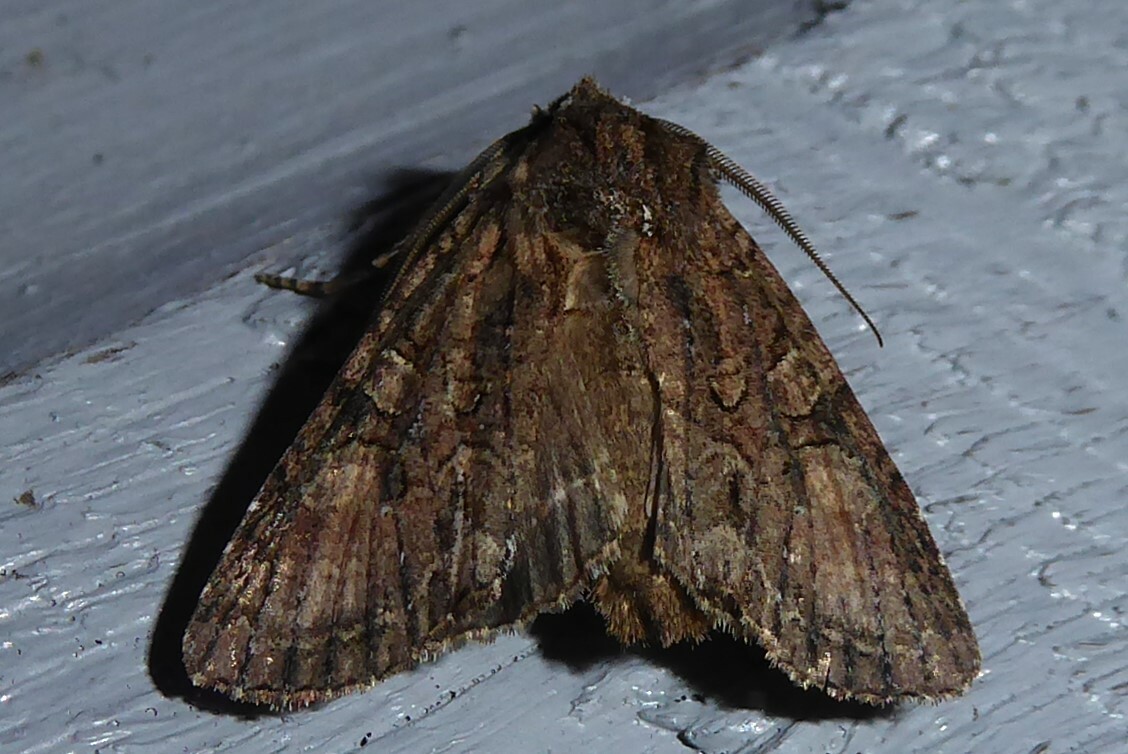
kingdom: Animalia
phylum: Arthropoda
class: Insecta
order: Lepidoptera
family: Noctuidae
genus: Ichneutica
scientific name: Ichneutica mutans
